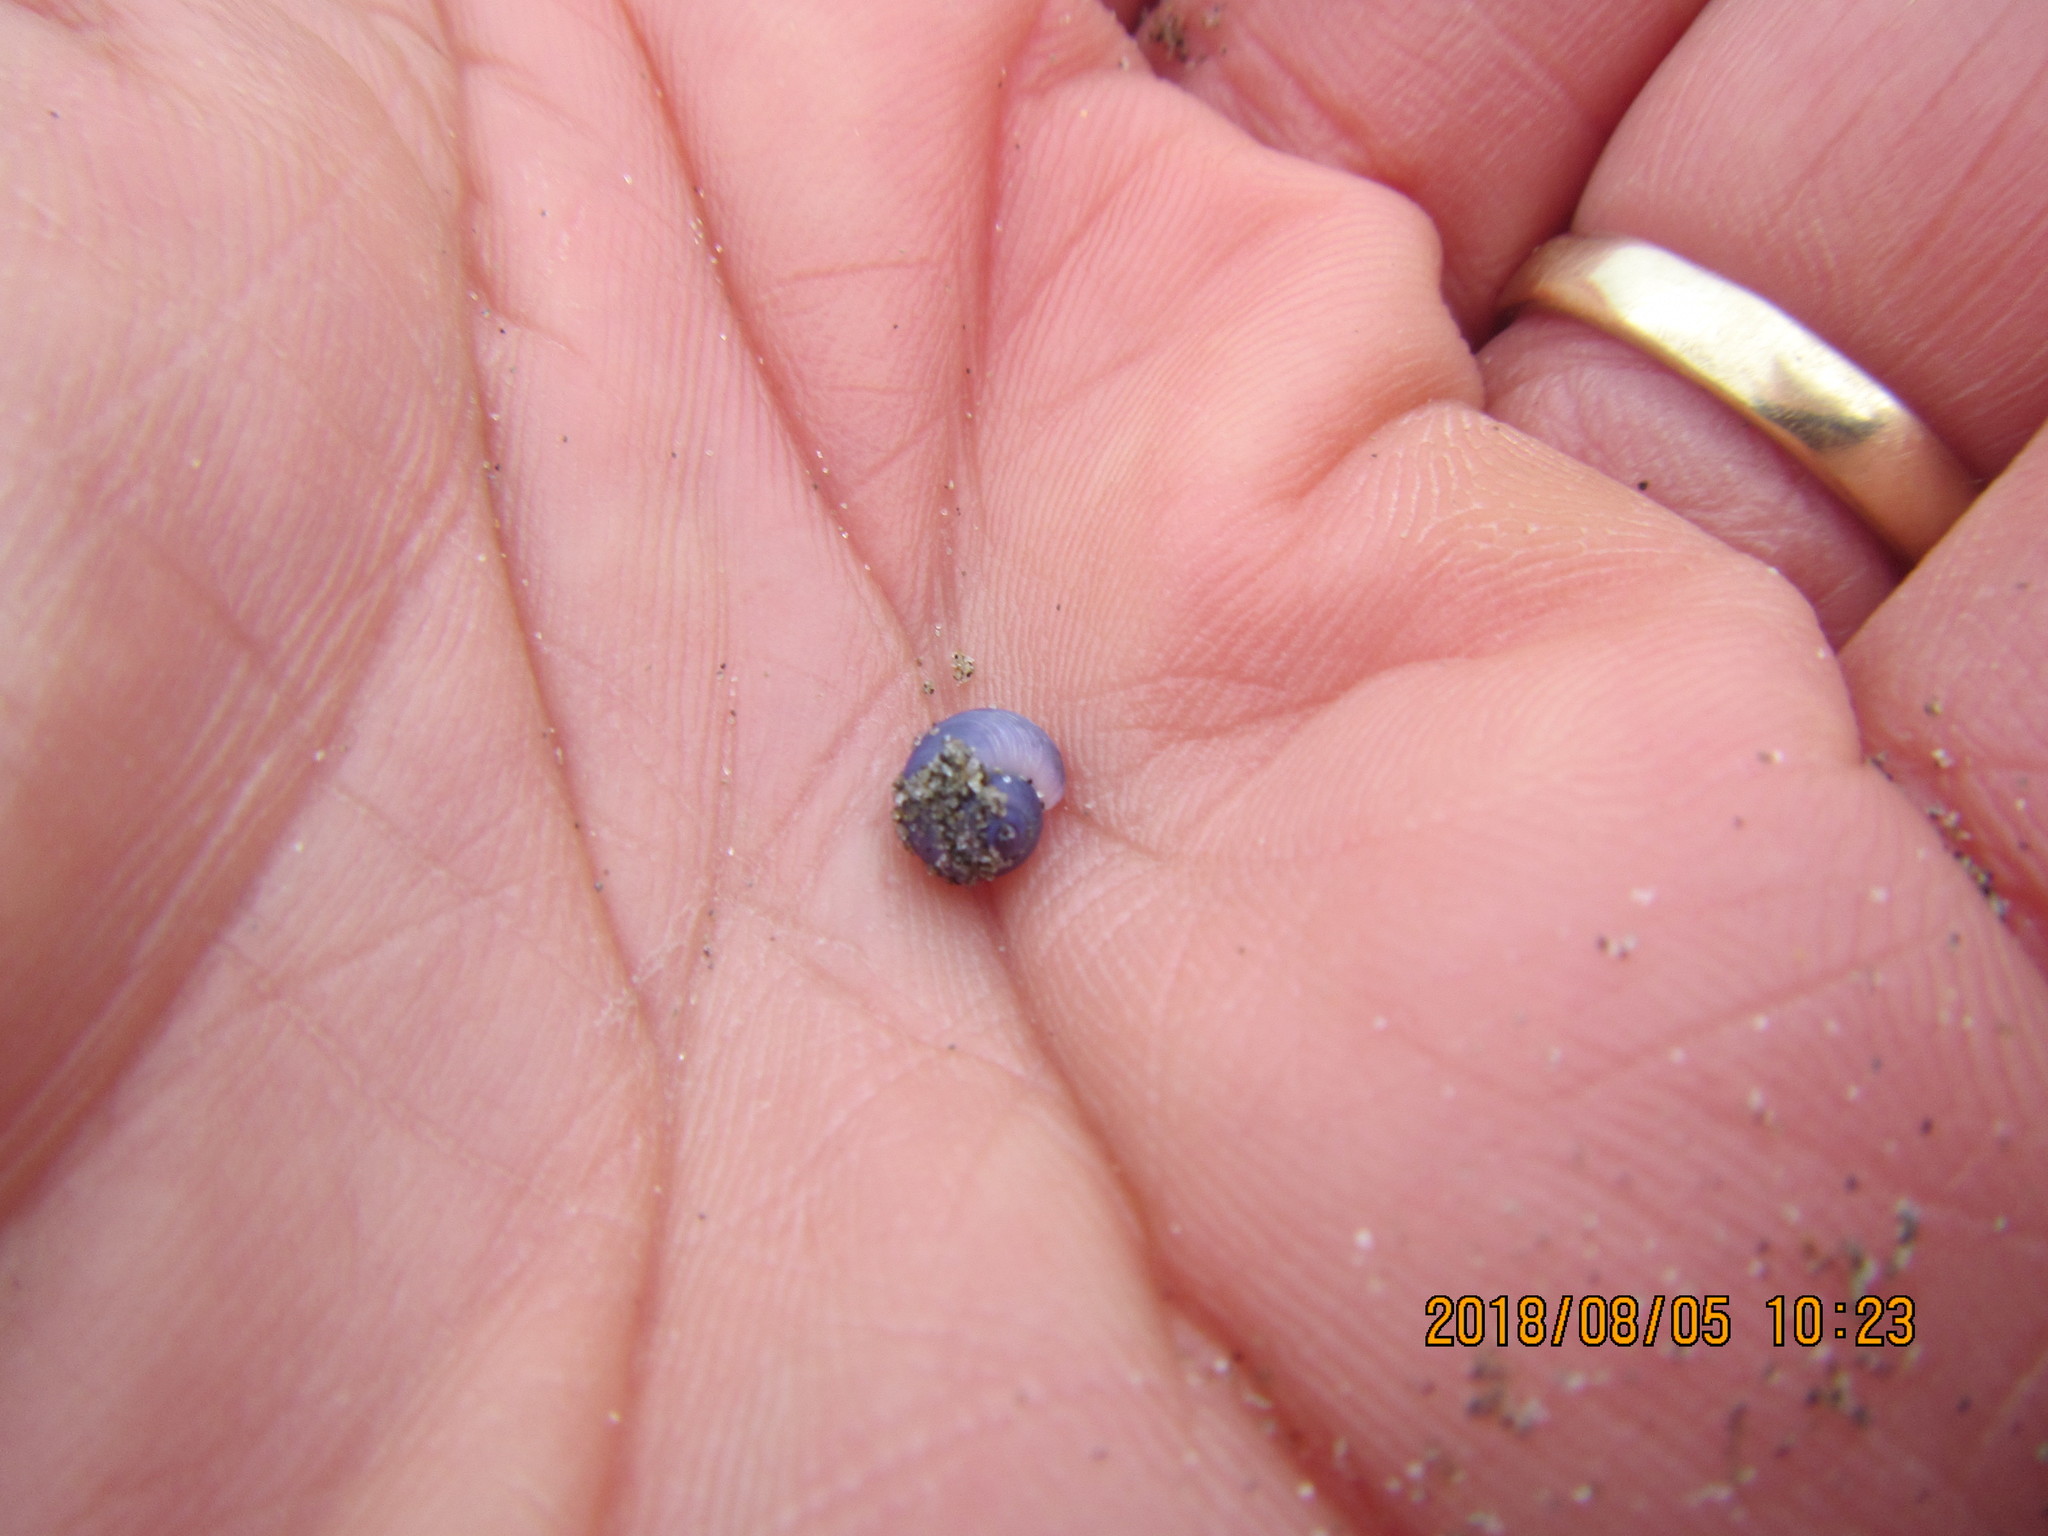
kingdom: Animalia
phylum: Mollusca
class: Gastropoda
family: Epitoniidae
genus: Janthina
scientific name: Janthina exigua
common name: Dwarf janthina
